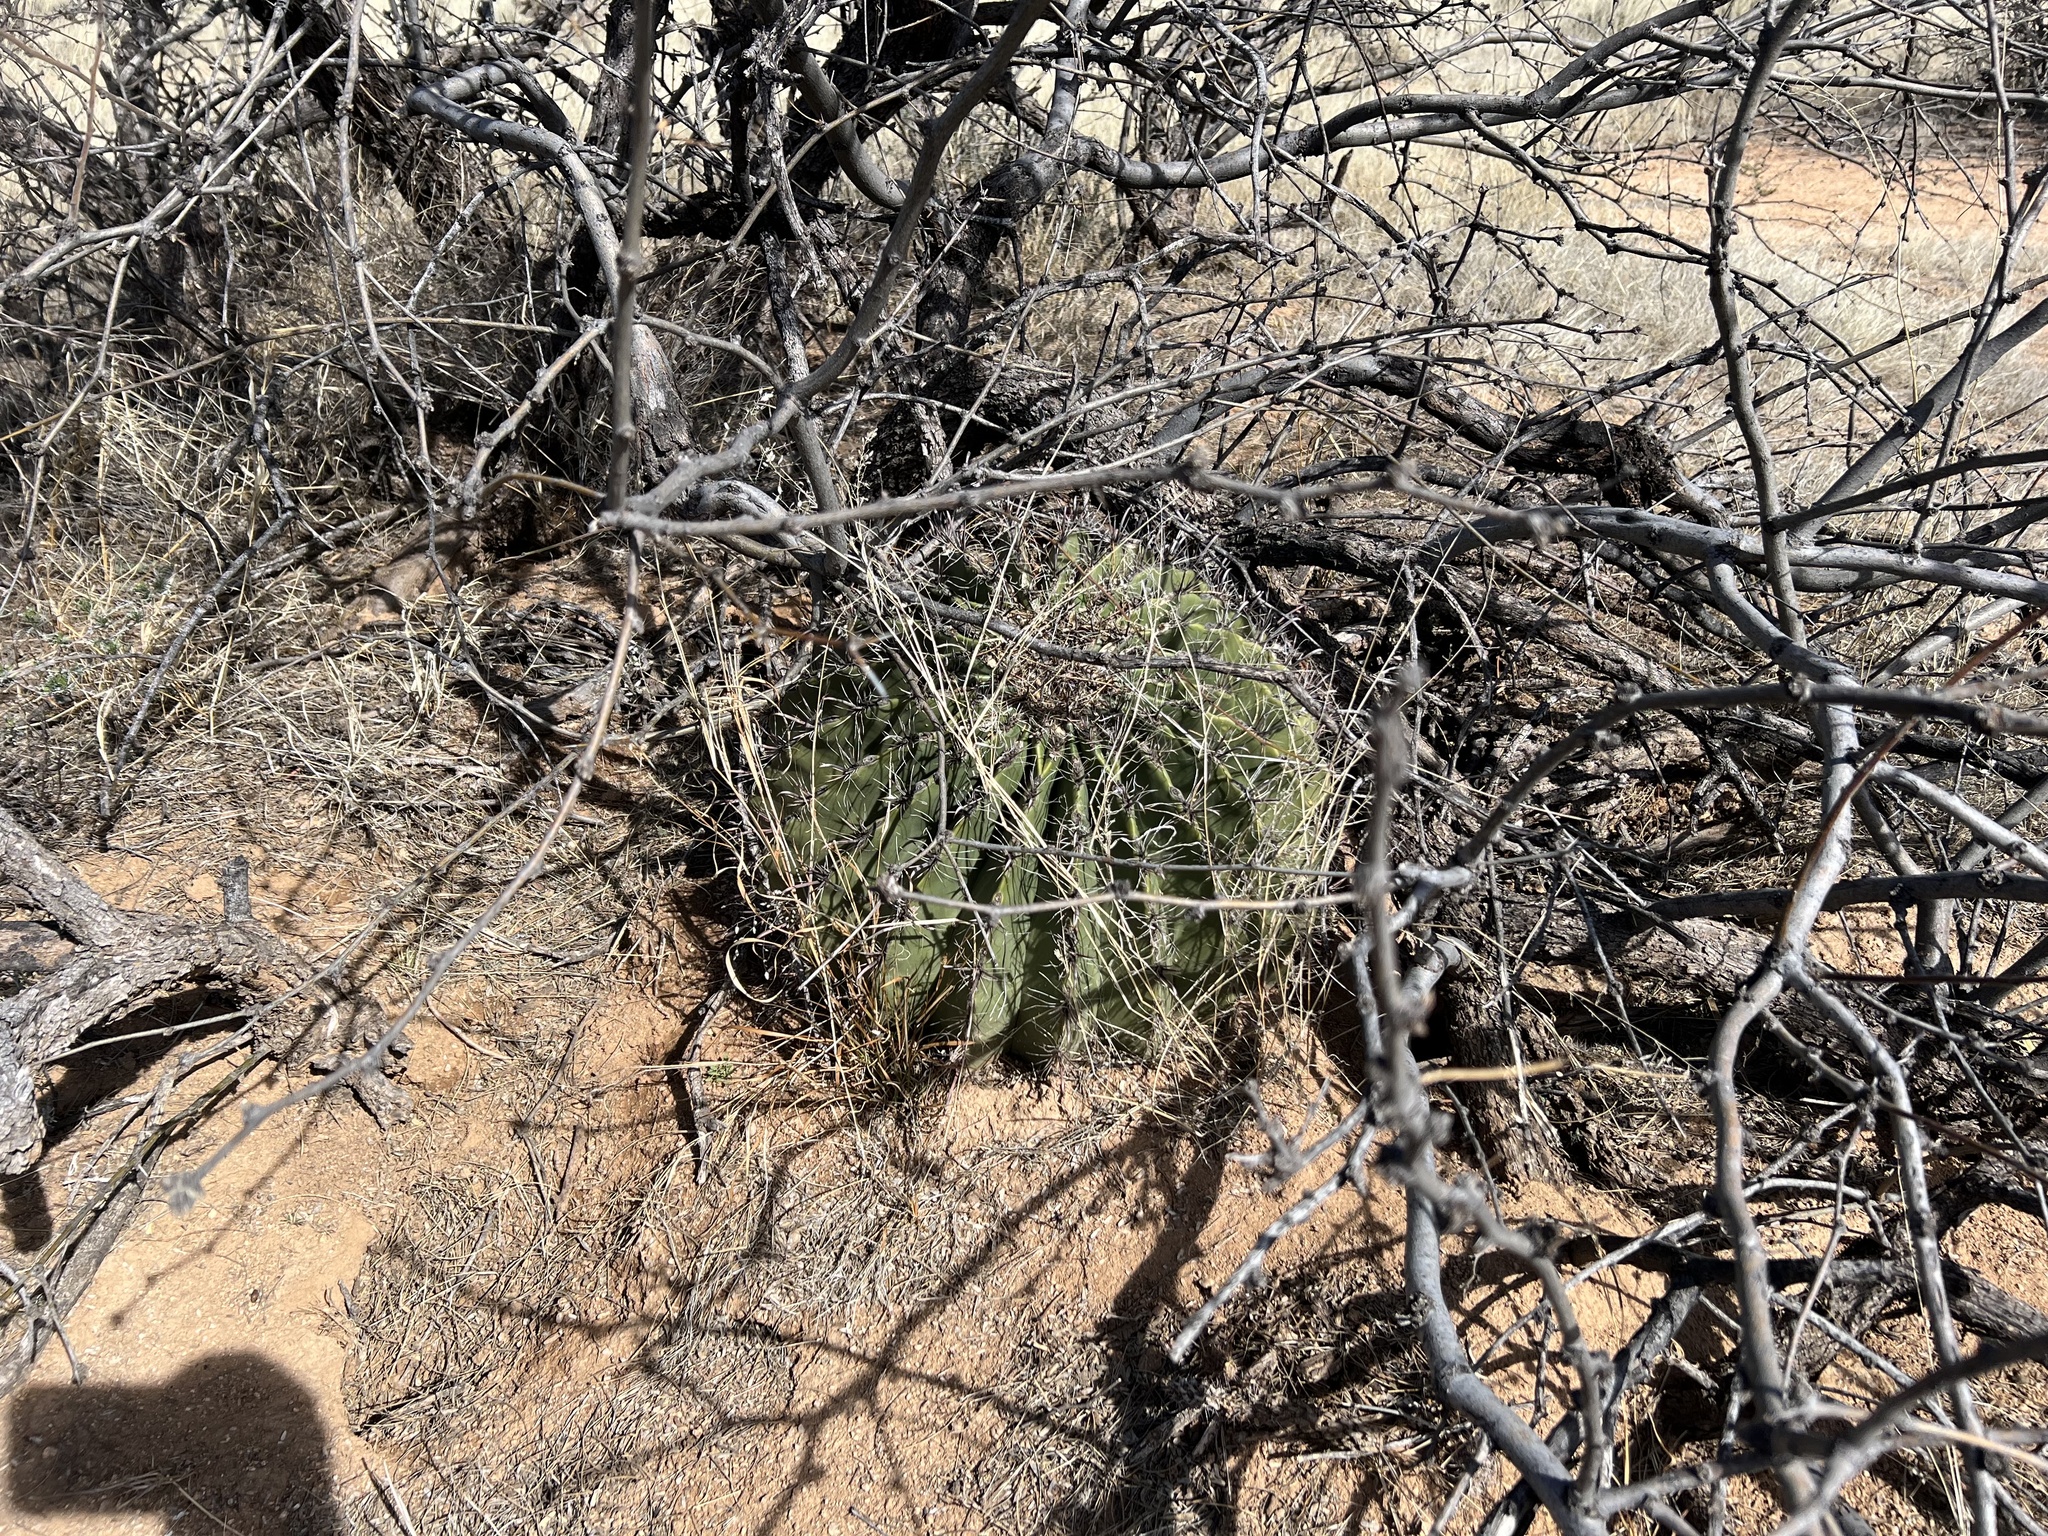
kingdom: Plantae
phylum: Tracheophyta
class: Magnoliopsida
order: Caryophyllales
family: Cactaceae
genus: Ferocactus
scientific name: Ferocactus wislizeni
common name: Candy barrel cactus
